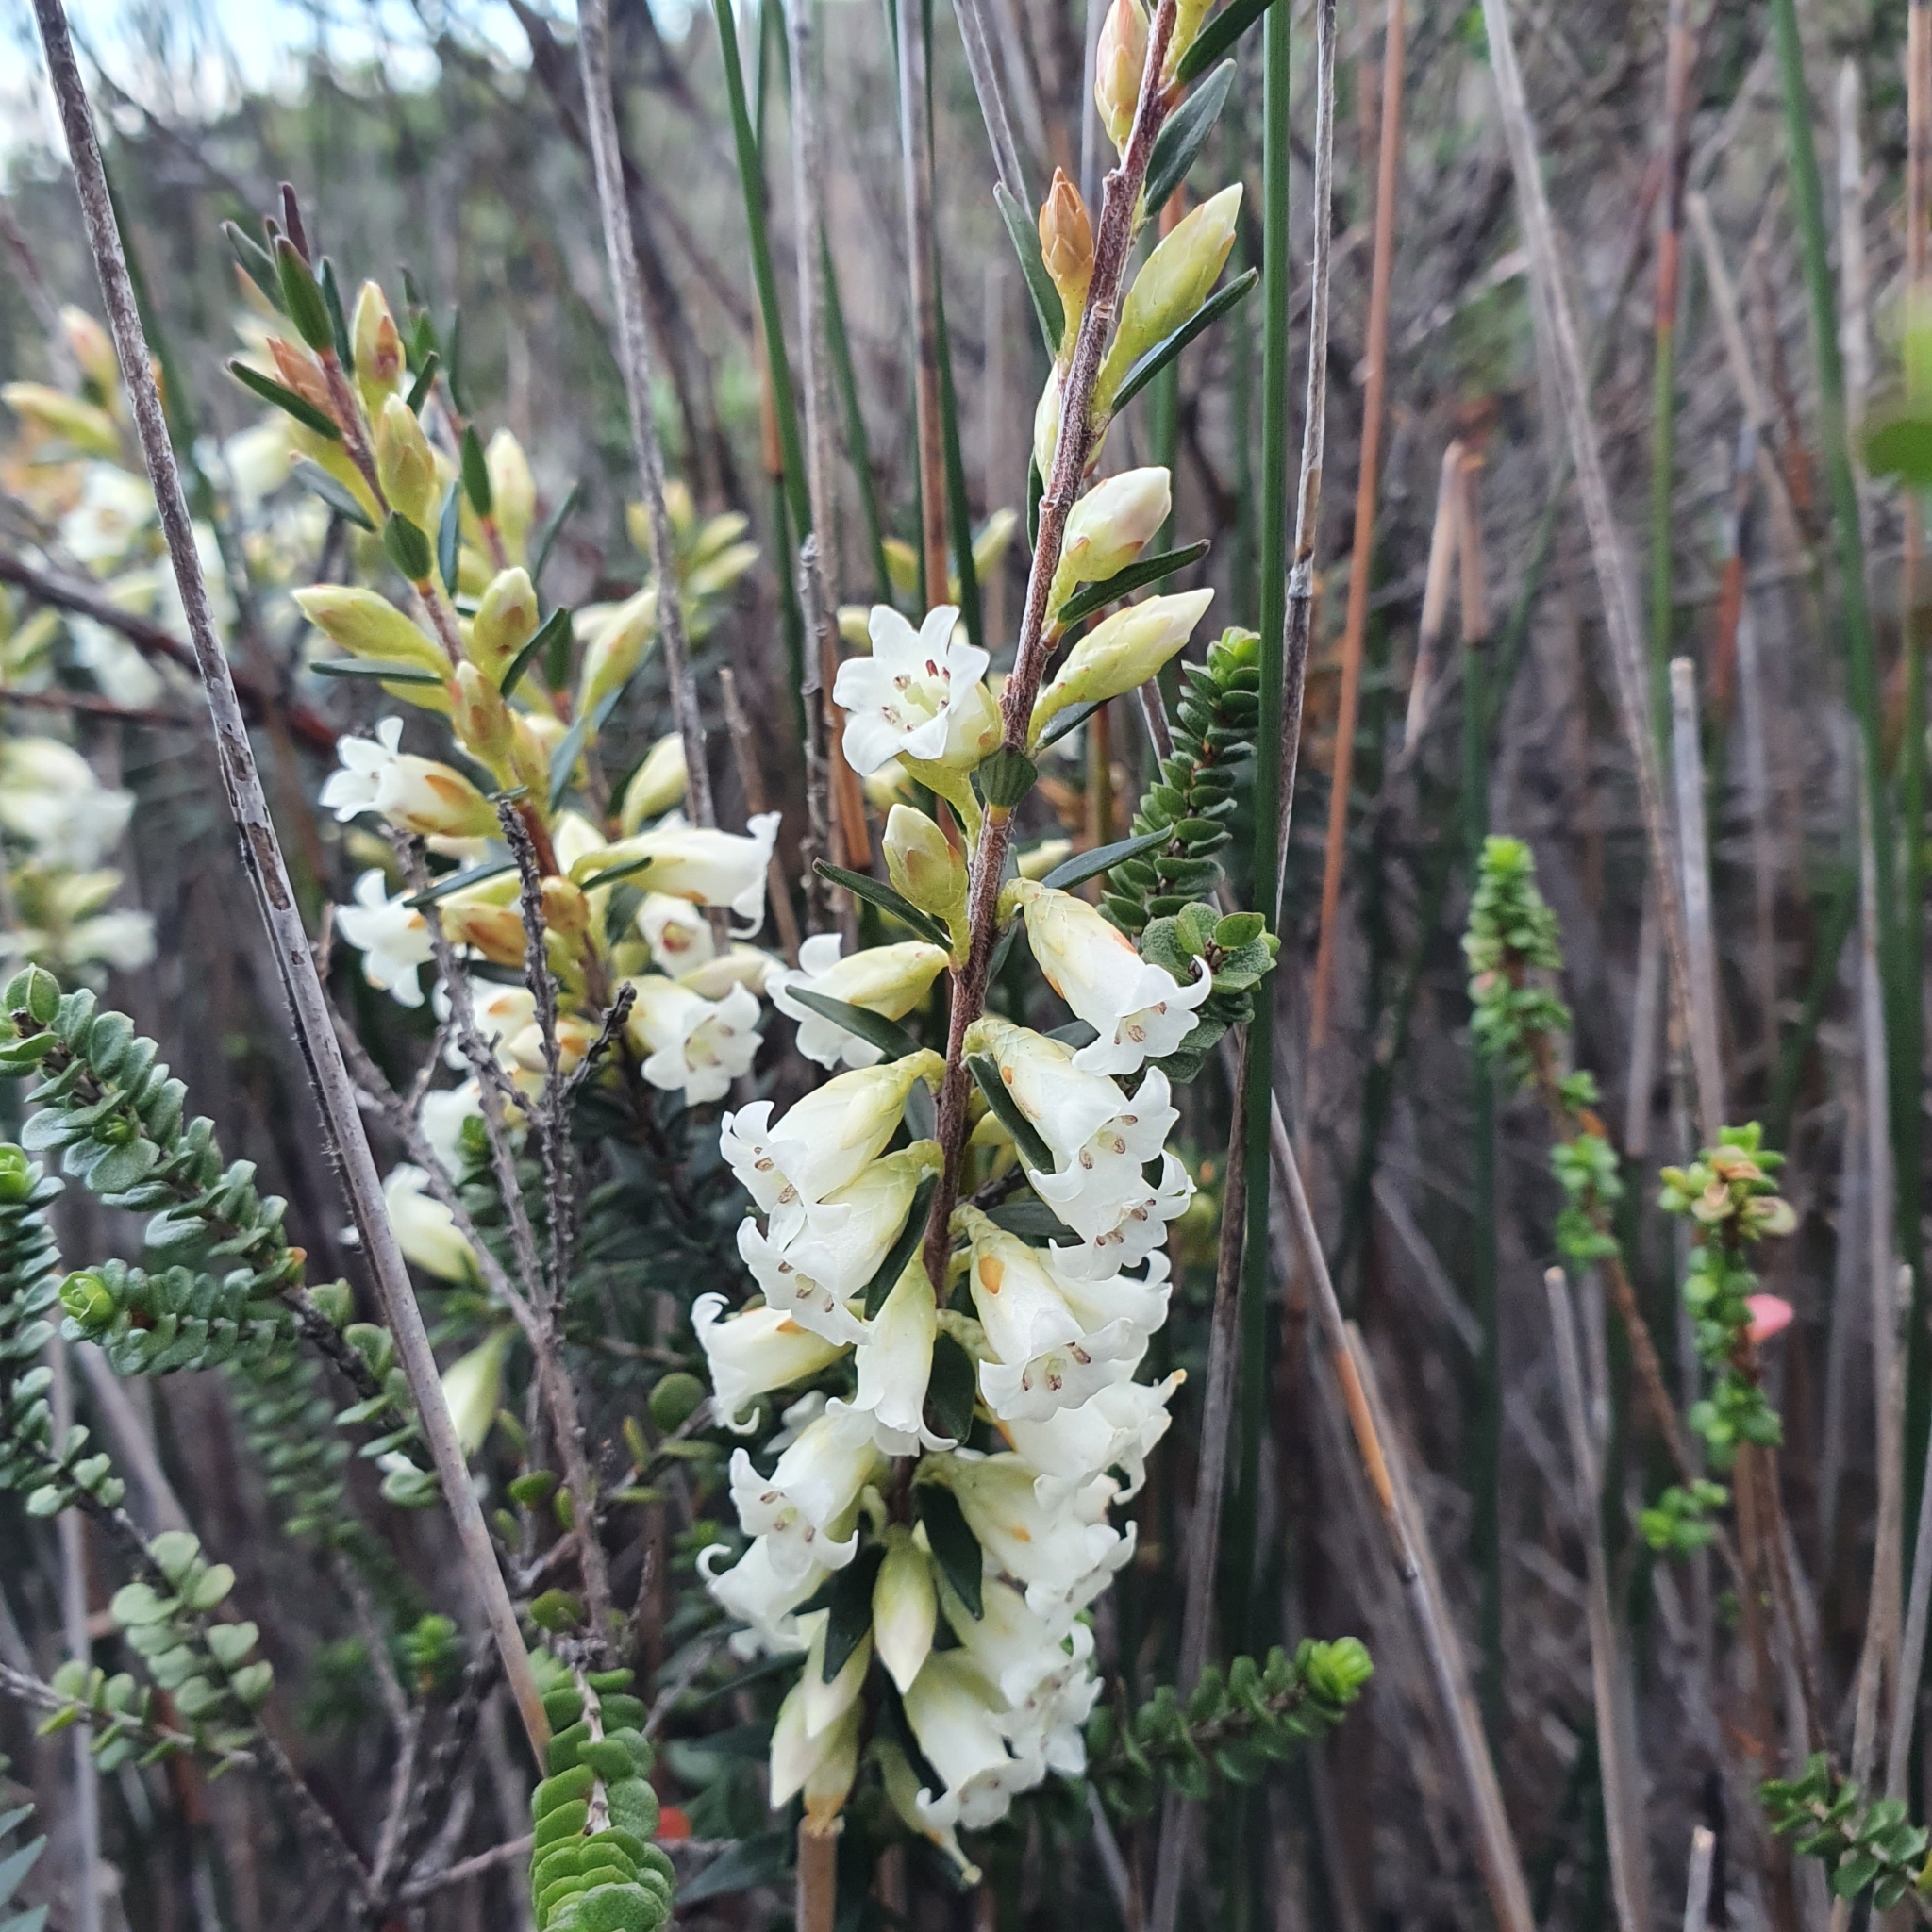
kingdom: Plantae
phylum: Tracheophyta
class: Magnoliopsida
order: Ericales
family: Ericaceae
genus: Epacris
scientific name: Epacris obtusifolia
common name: Blunt-leaf australian-heath
